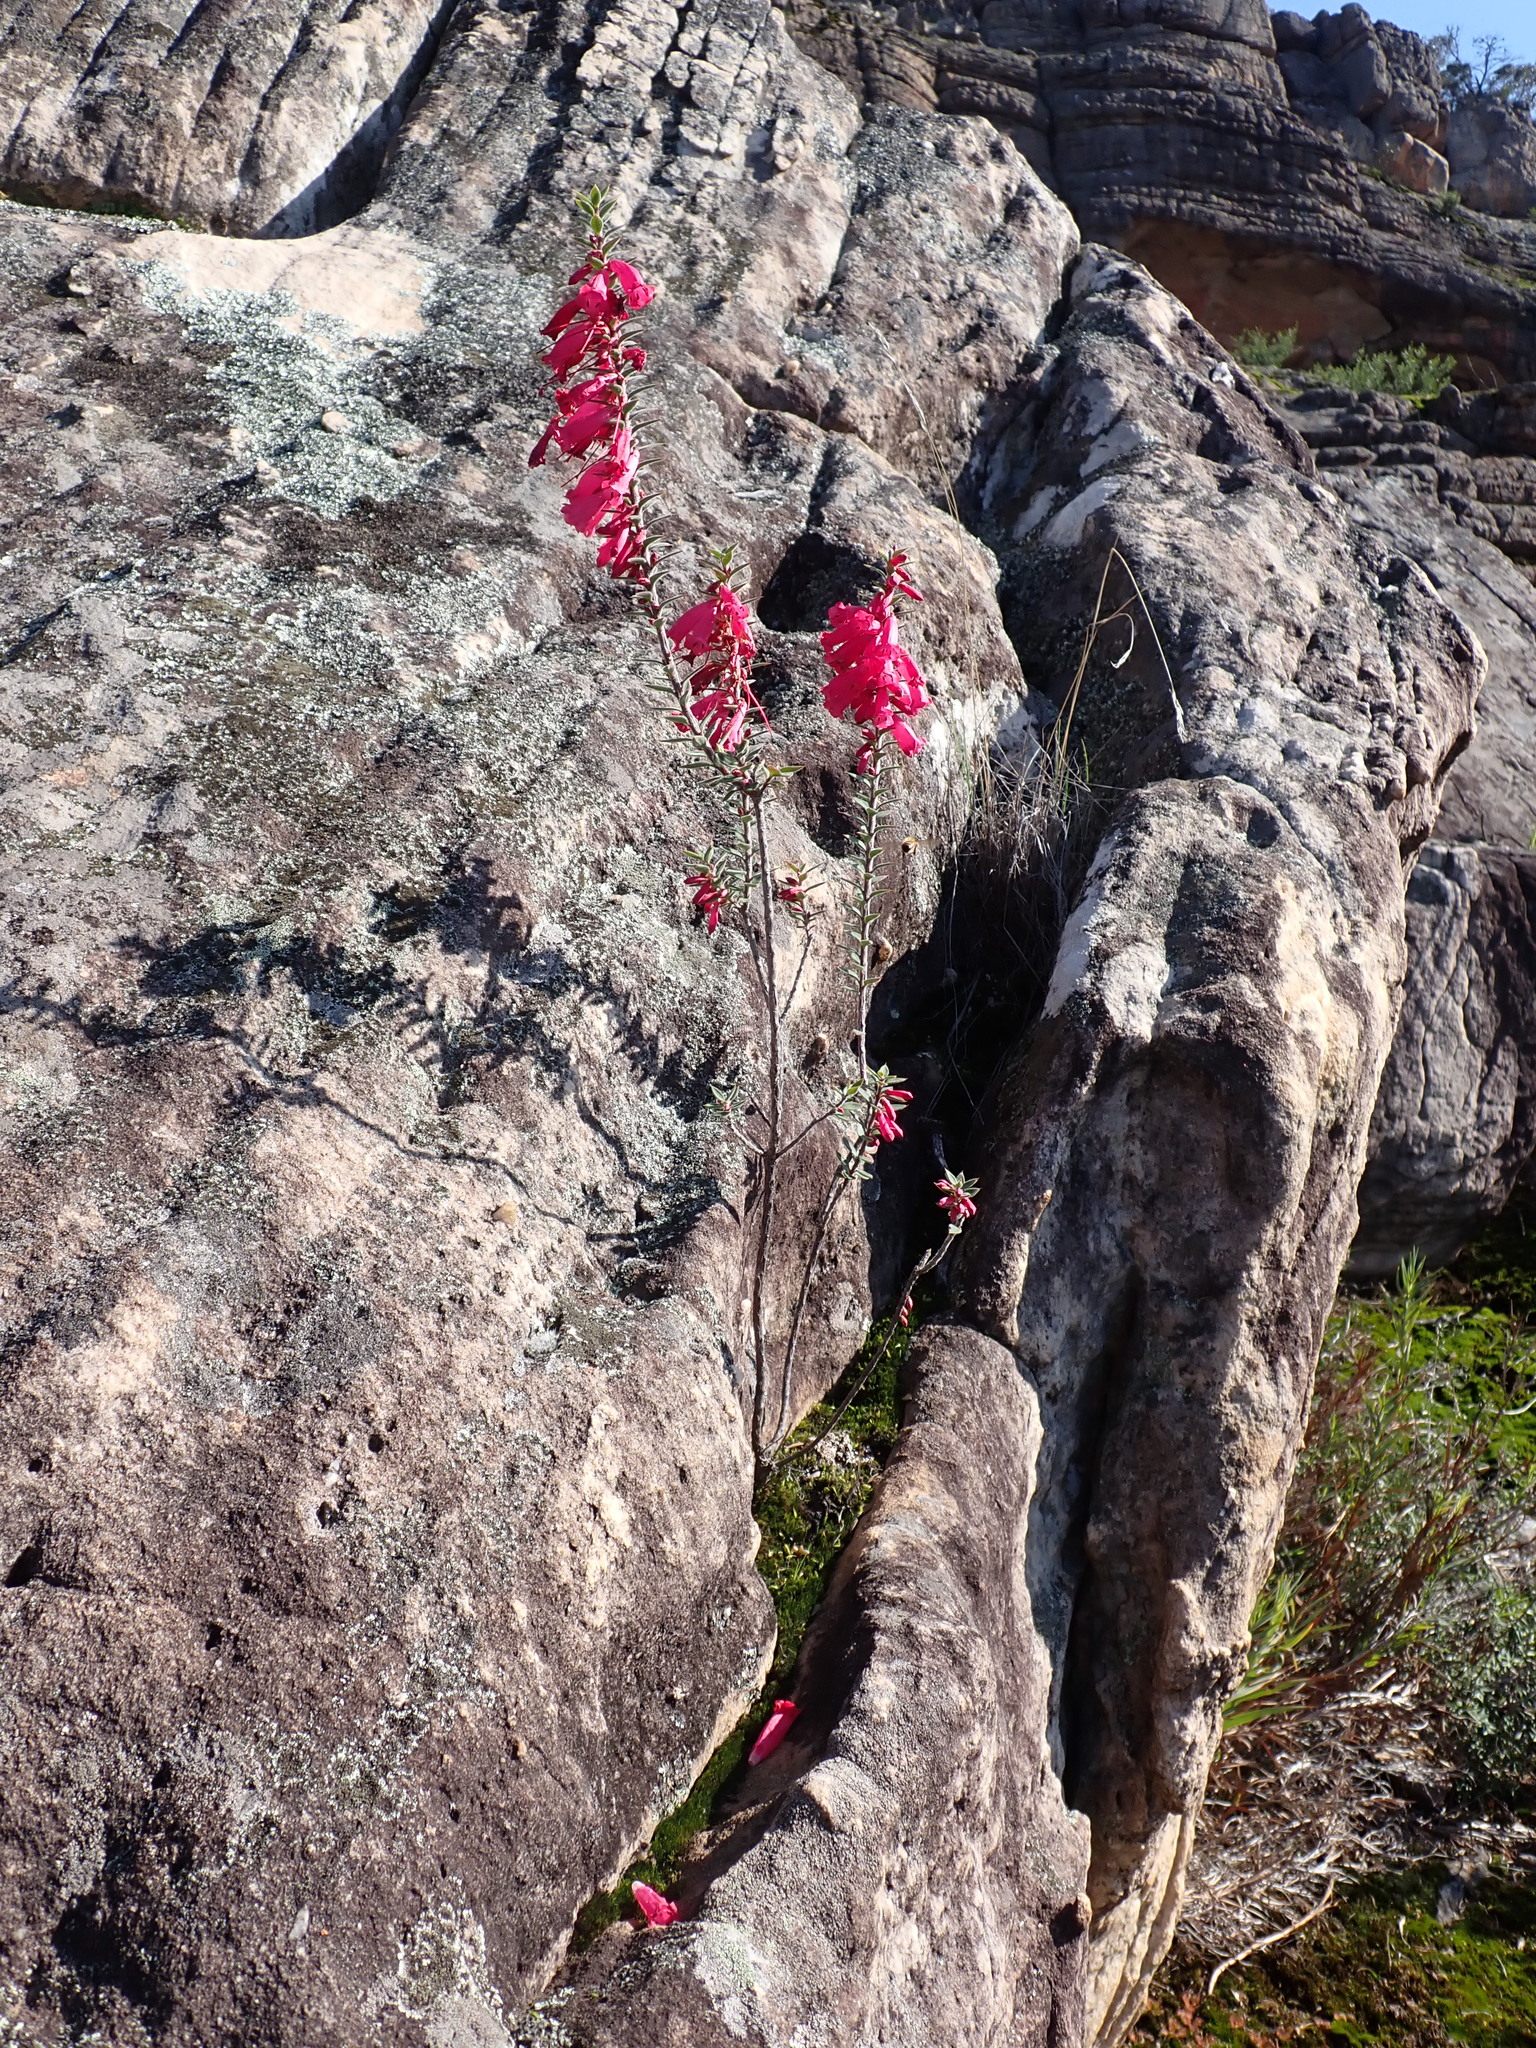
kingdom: Plantae
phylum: Tracheophyta
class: Magnoliopsida
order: Ericales
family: Ericaceae
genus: Epacris
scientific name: Epacris impressa
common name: Common-heath
